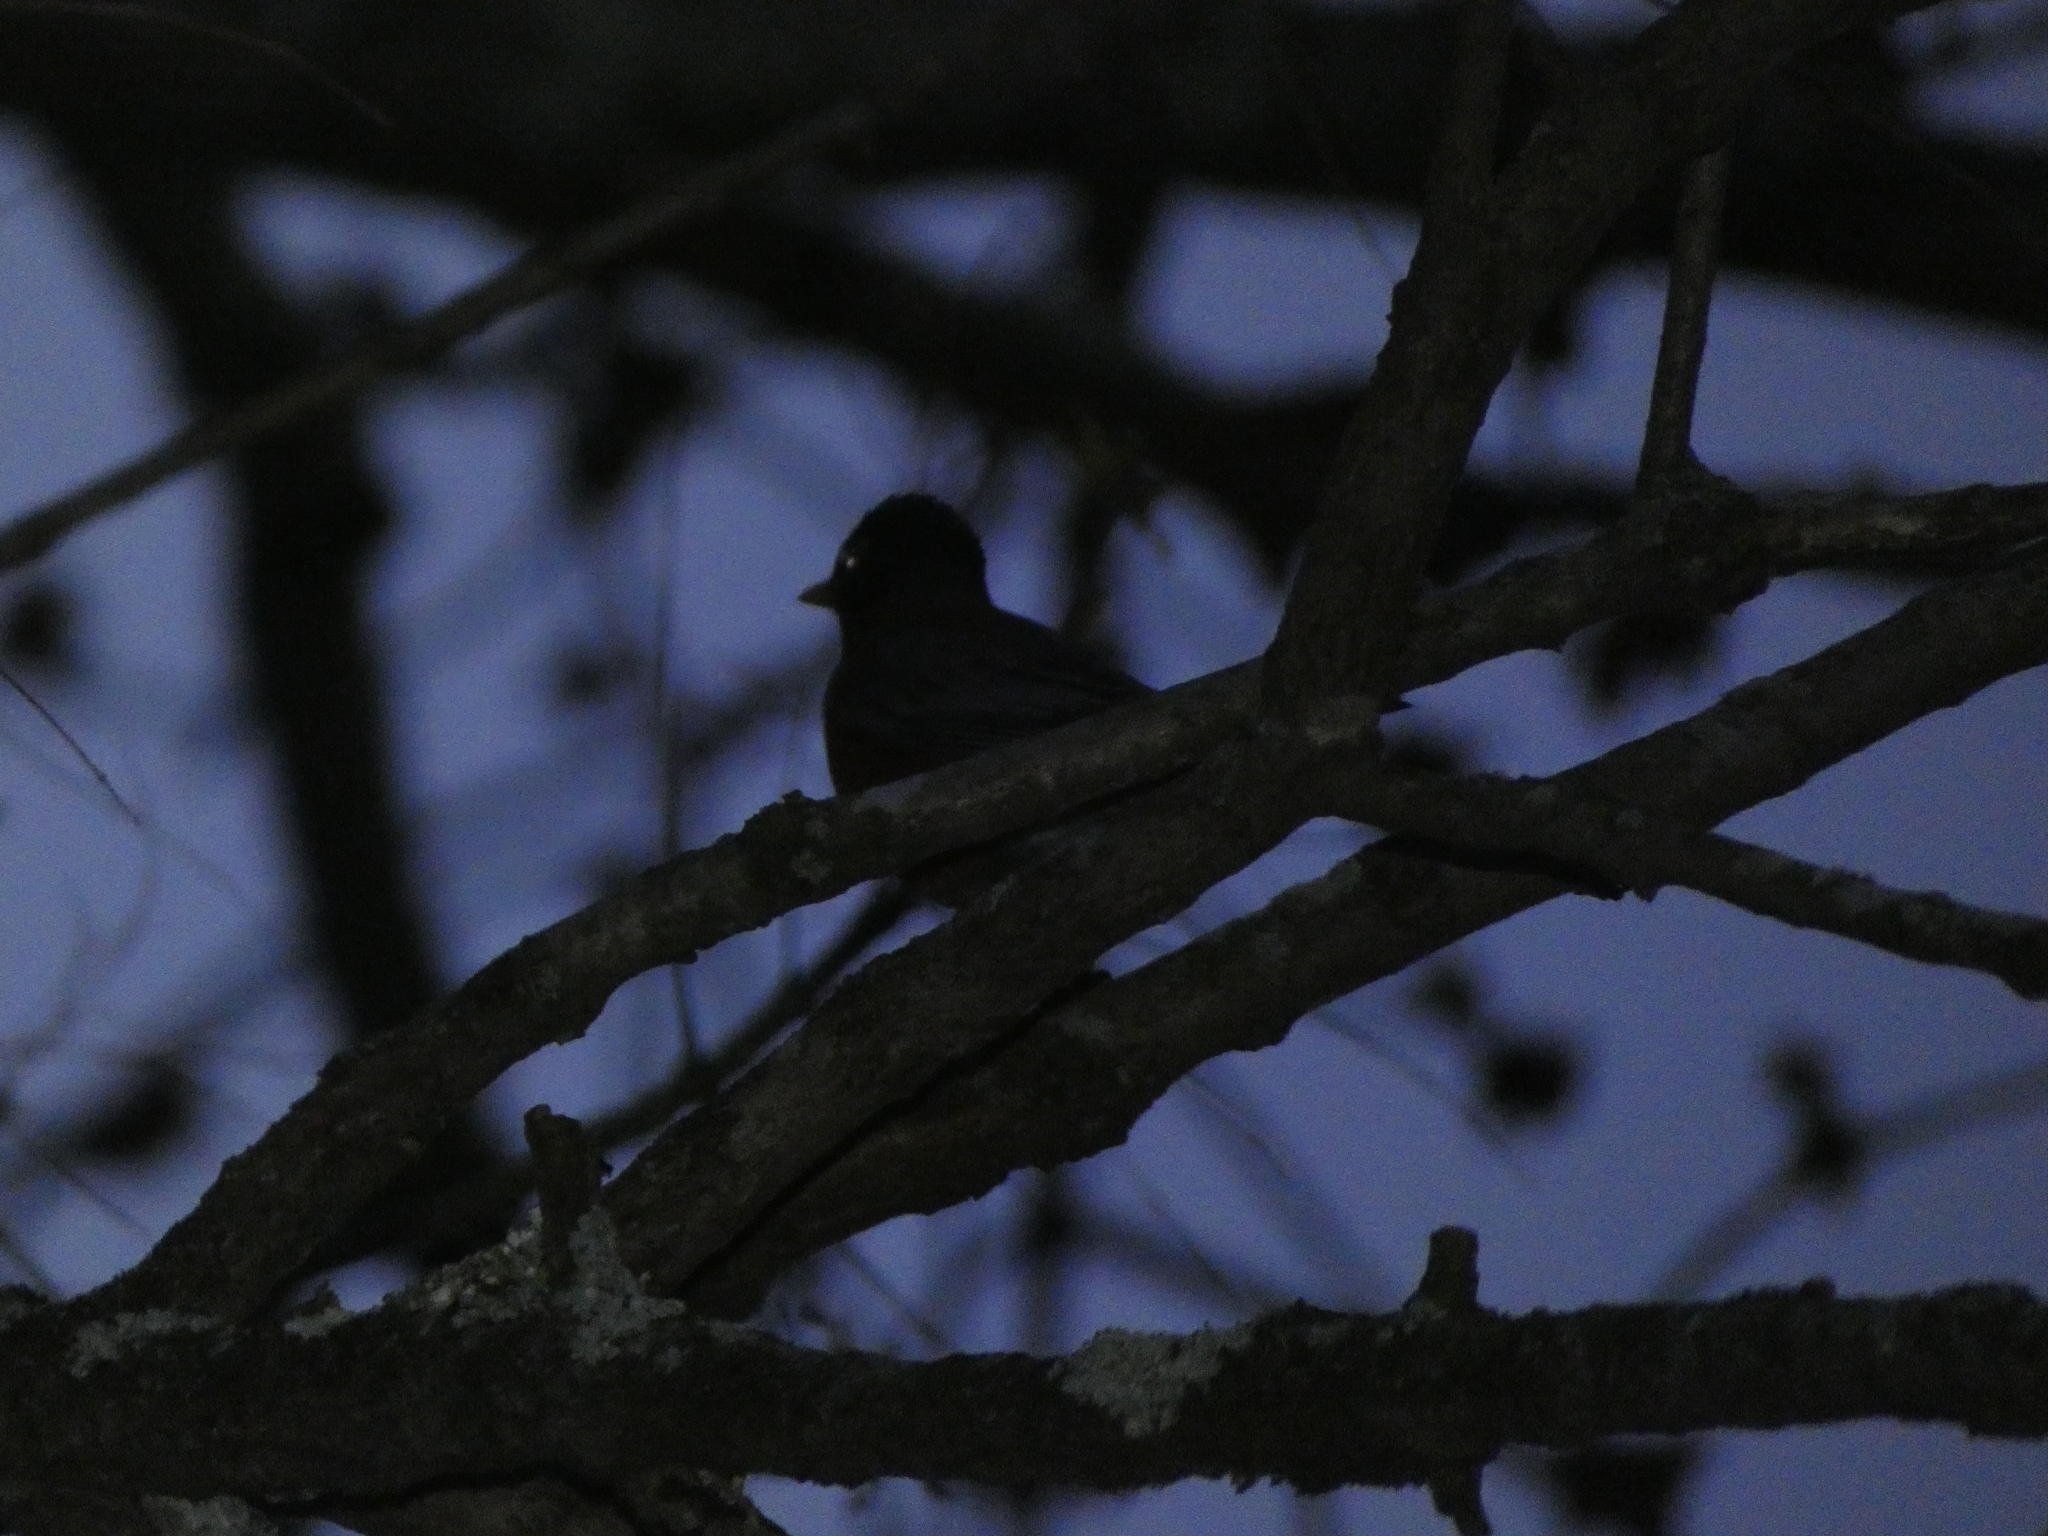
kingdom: Animalia
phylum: Chordata
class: Aves
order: Passeriformes
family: Turdidae
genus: Turdus
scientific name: Turdus migratorius
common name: American robin
